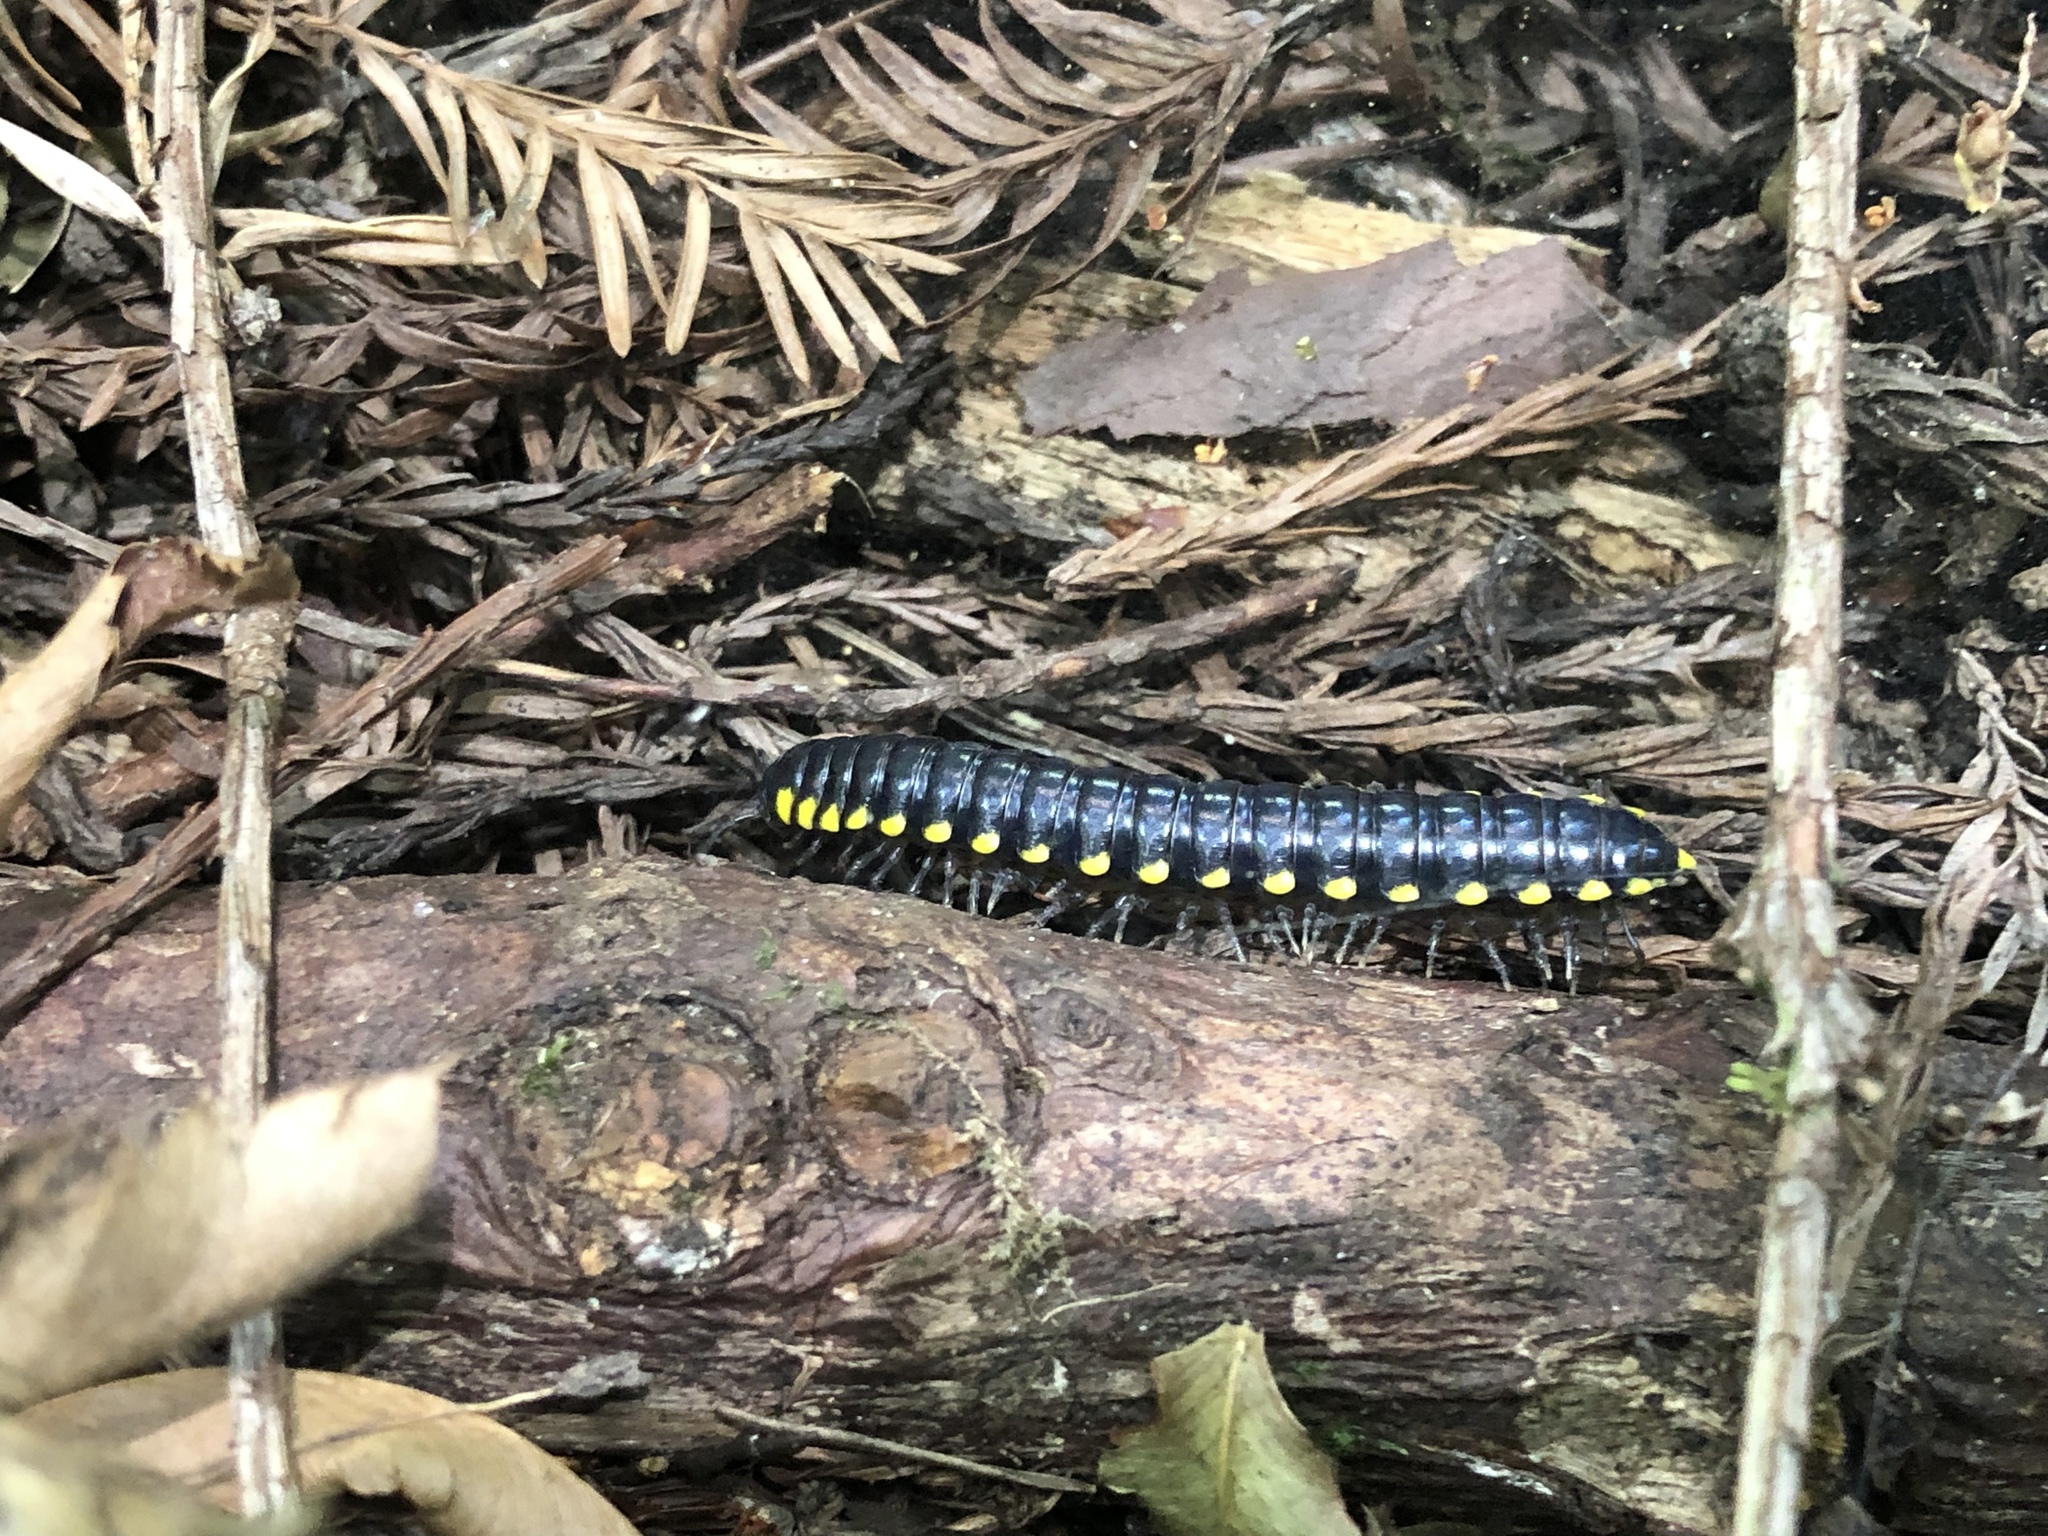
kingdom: Animalia
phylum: Arthropoda
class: Diplopoda
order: Polydesmida
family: Xystodesmidae
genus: Harpaphe
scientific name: Harpaphe haydeniana
